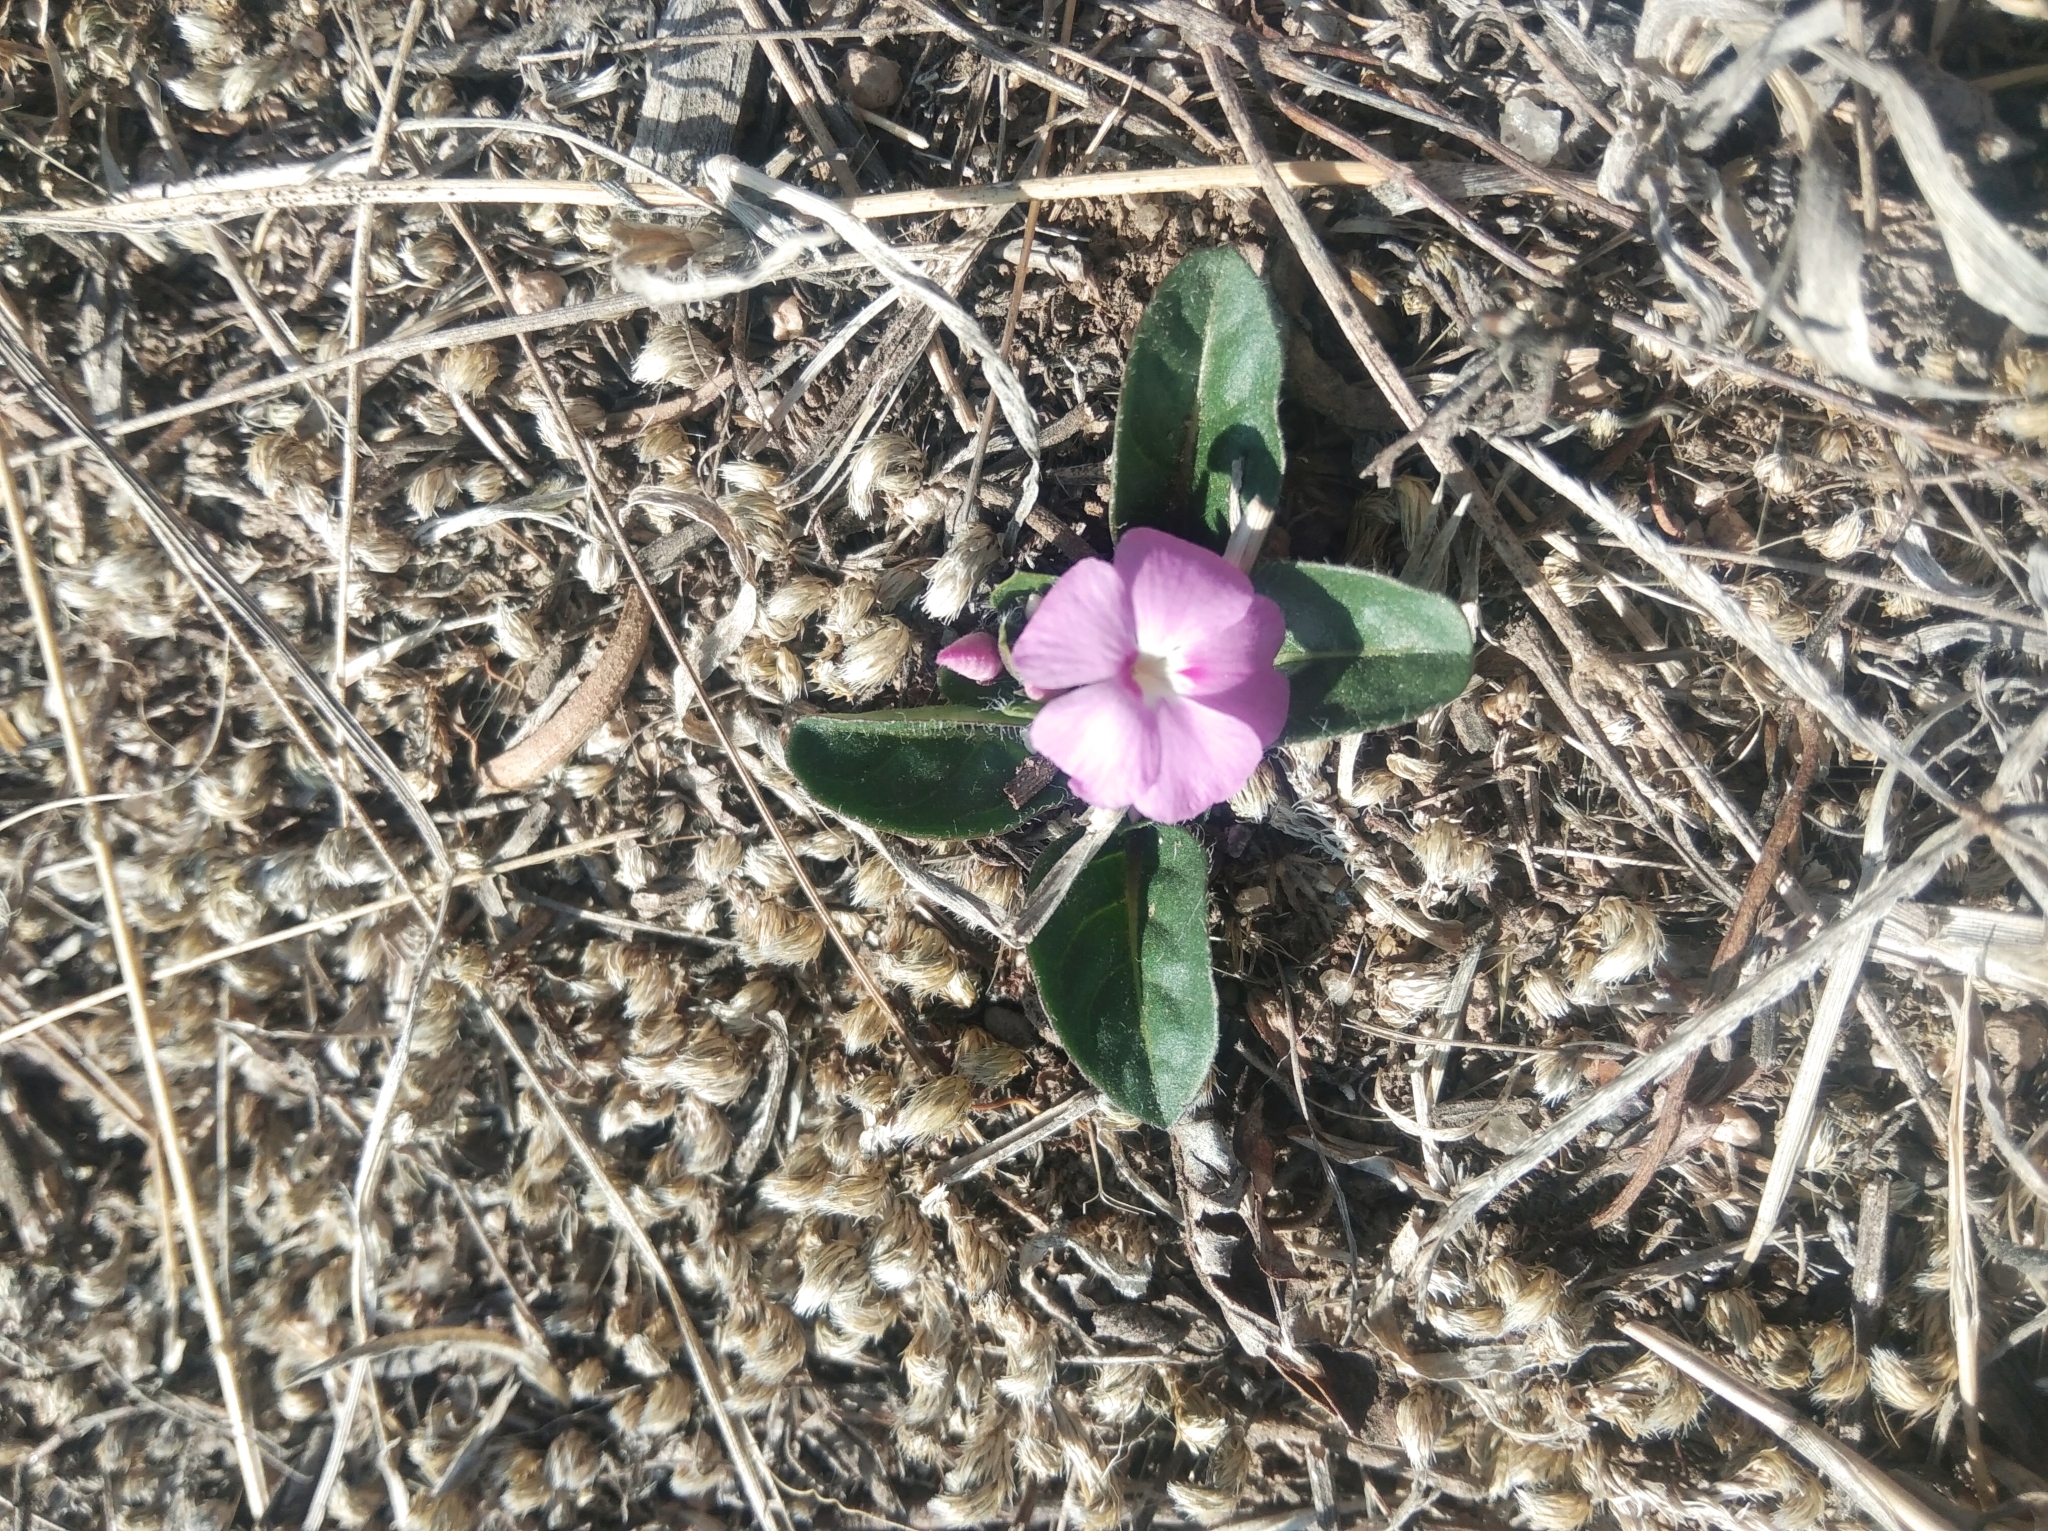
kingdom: Plantae
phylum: Tracheophyta
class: Magnoliopsida
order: Lamiales
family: Acanthaceae
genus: Stenandrium
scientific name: Stenandrium dulce
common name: Pinklet
